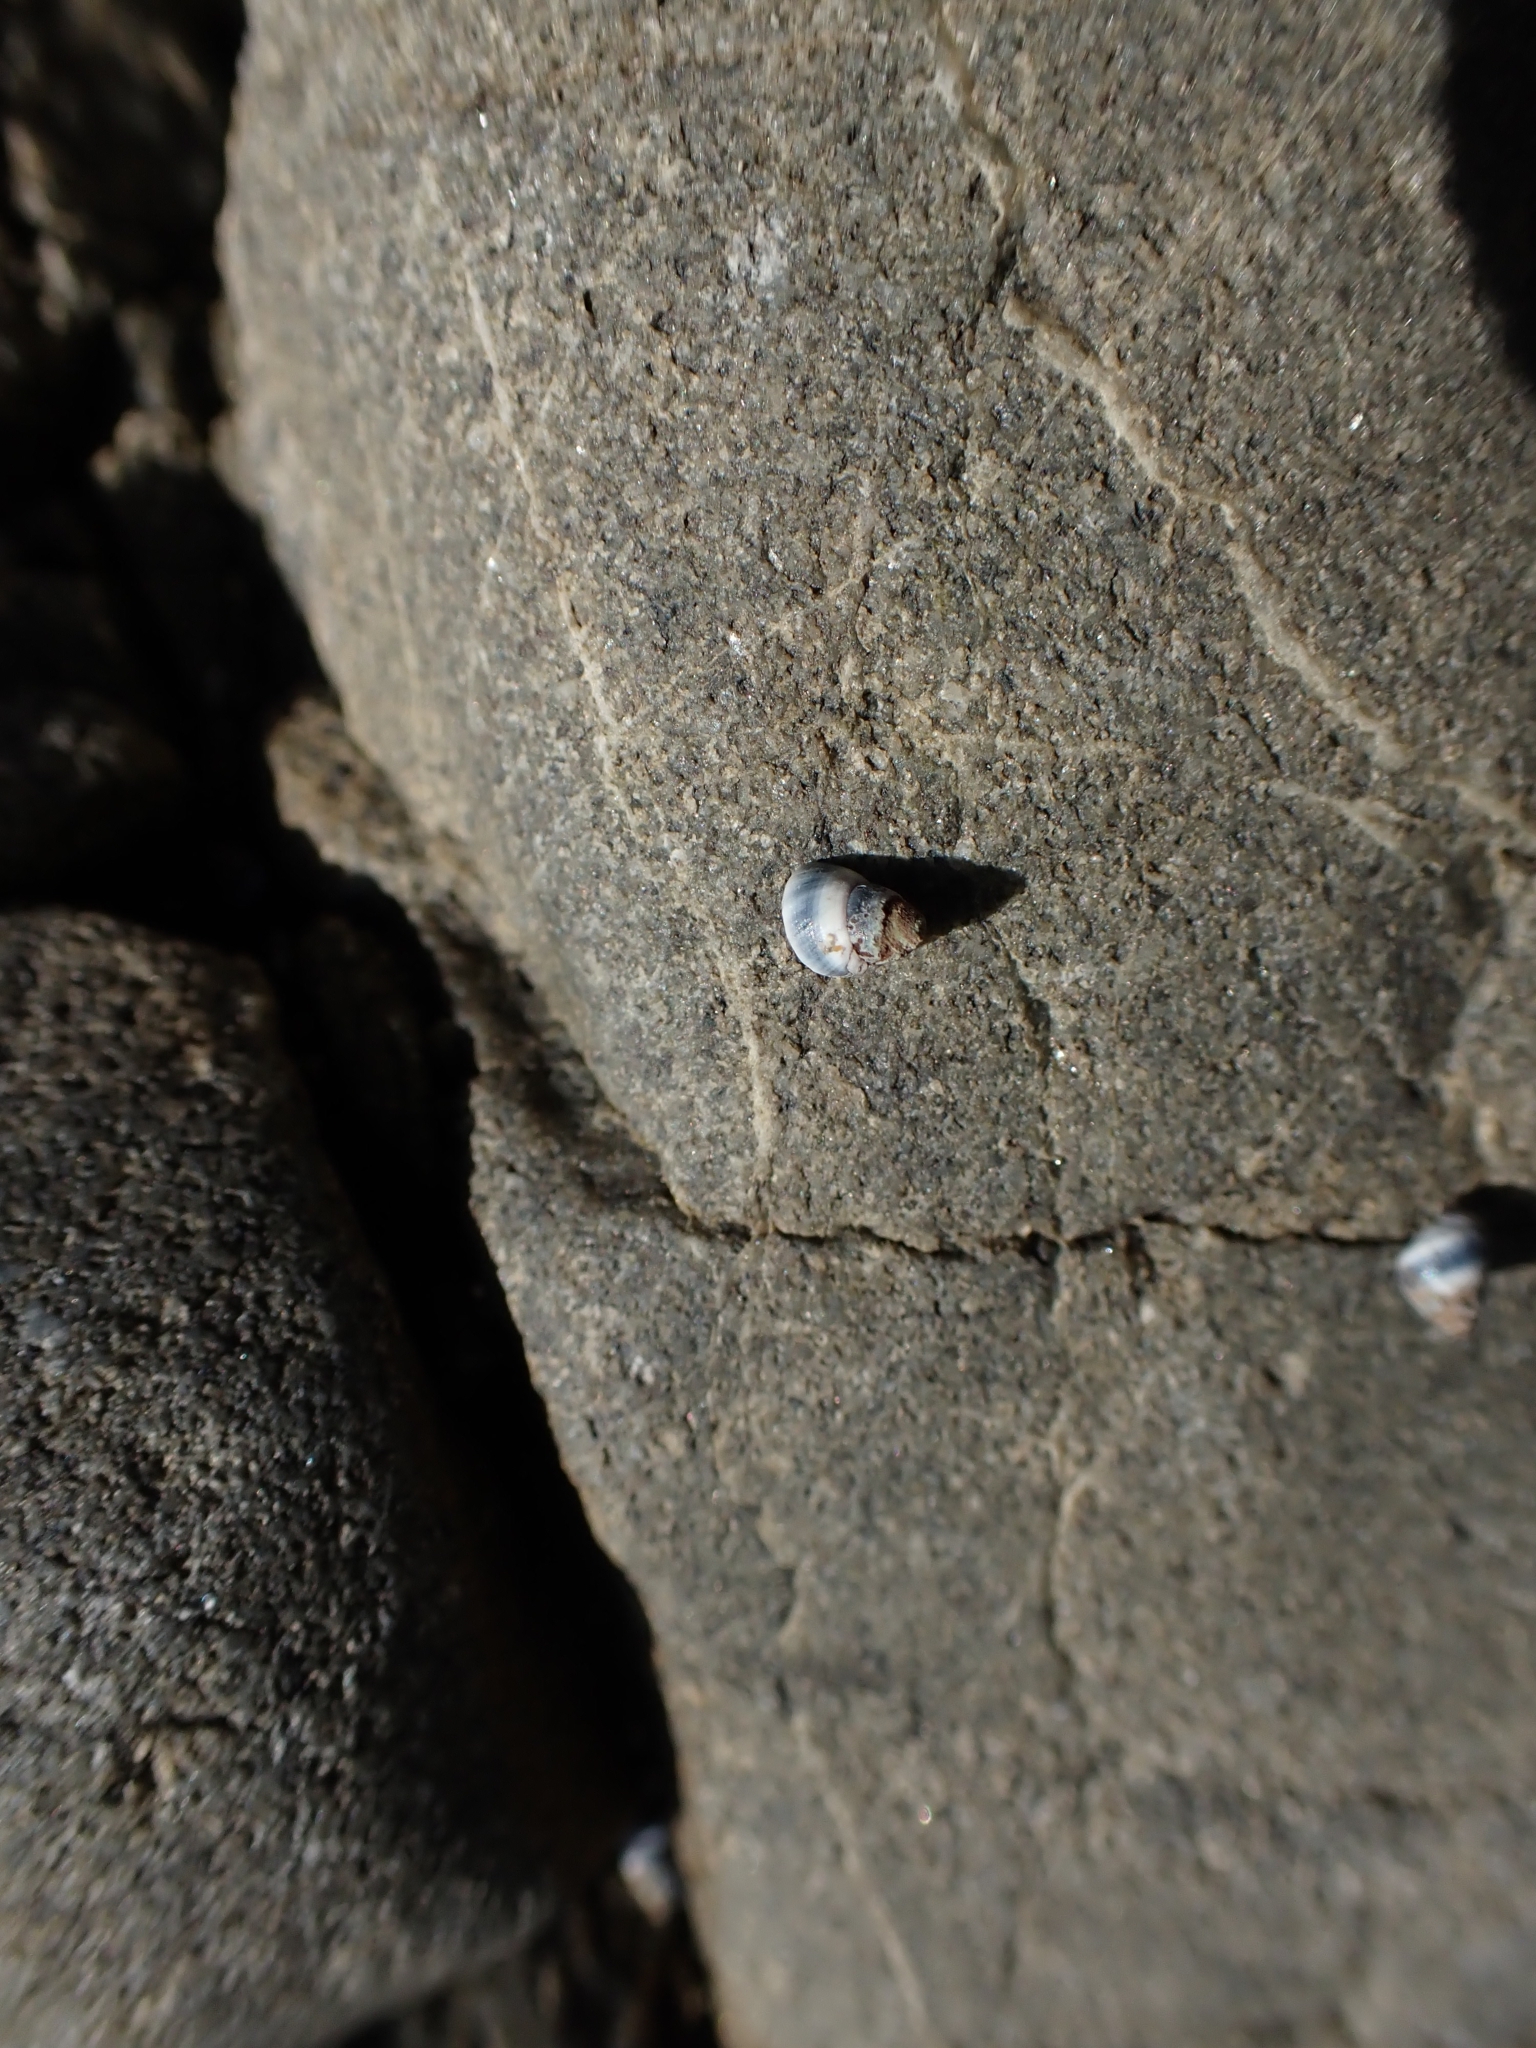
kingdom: Animalia
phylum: Mollusca
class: Gastropoda
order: Littorinimorpha
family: Littorinidae
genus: Austrolittorina
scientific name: Austrolittorina antipodum
